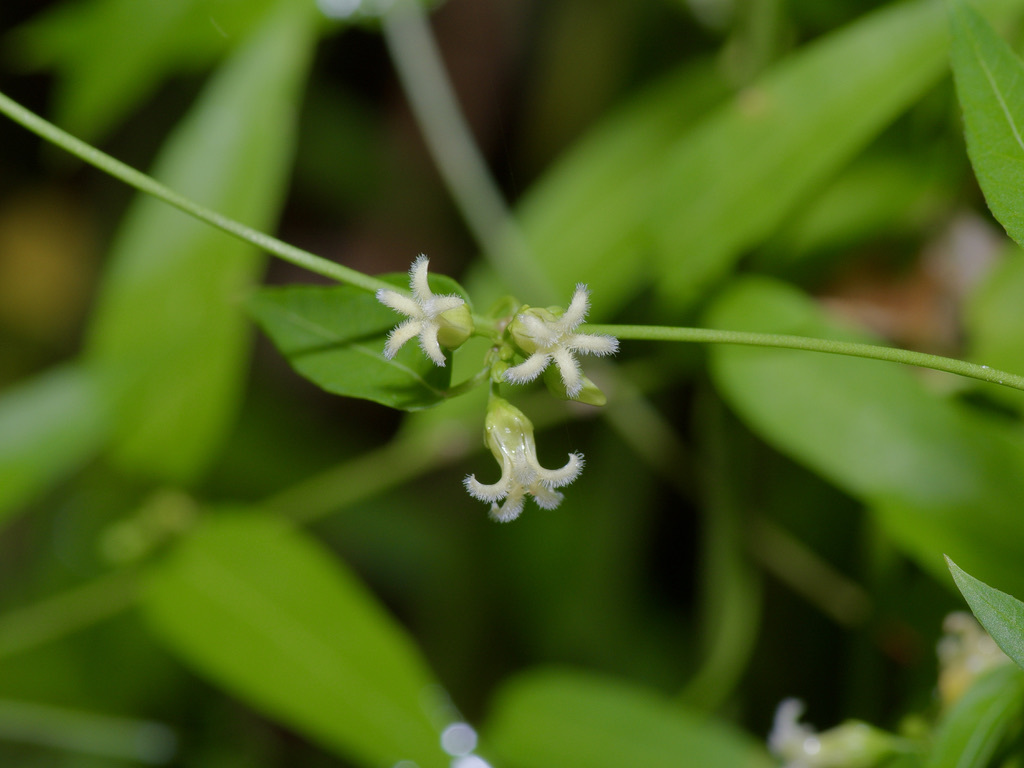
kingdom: Plantae
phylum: Tracheophyta
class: Magnoliopsida
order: Gentianales
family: Apocynaceae
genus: Metastelma
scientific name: Metastelma barbigerum
